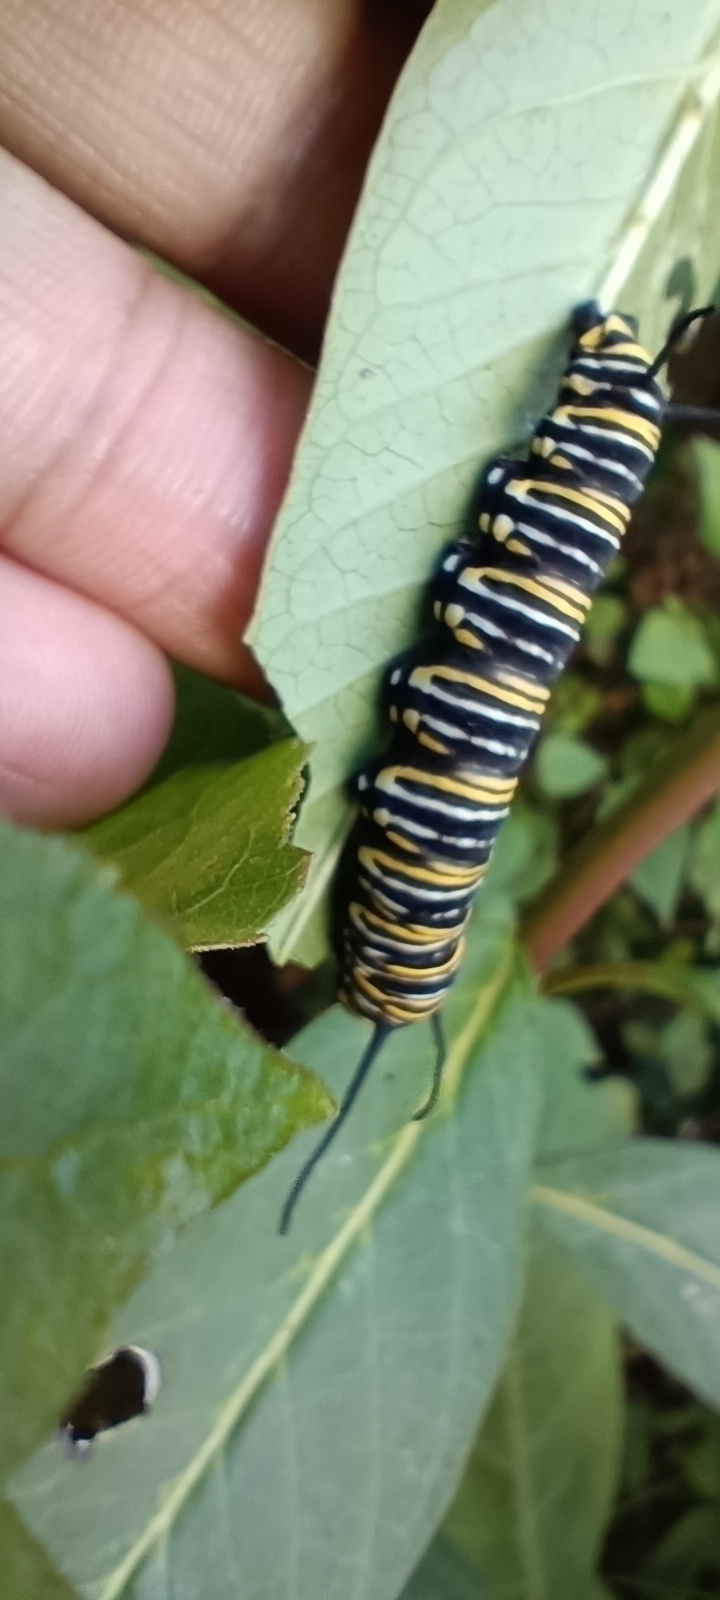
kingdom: Animalia
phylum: Arthropoda
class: Insecta
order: Lepidoptera
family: Nymphalidae
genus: Danaus
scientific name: Danaus plexippus
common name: Monarch
